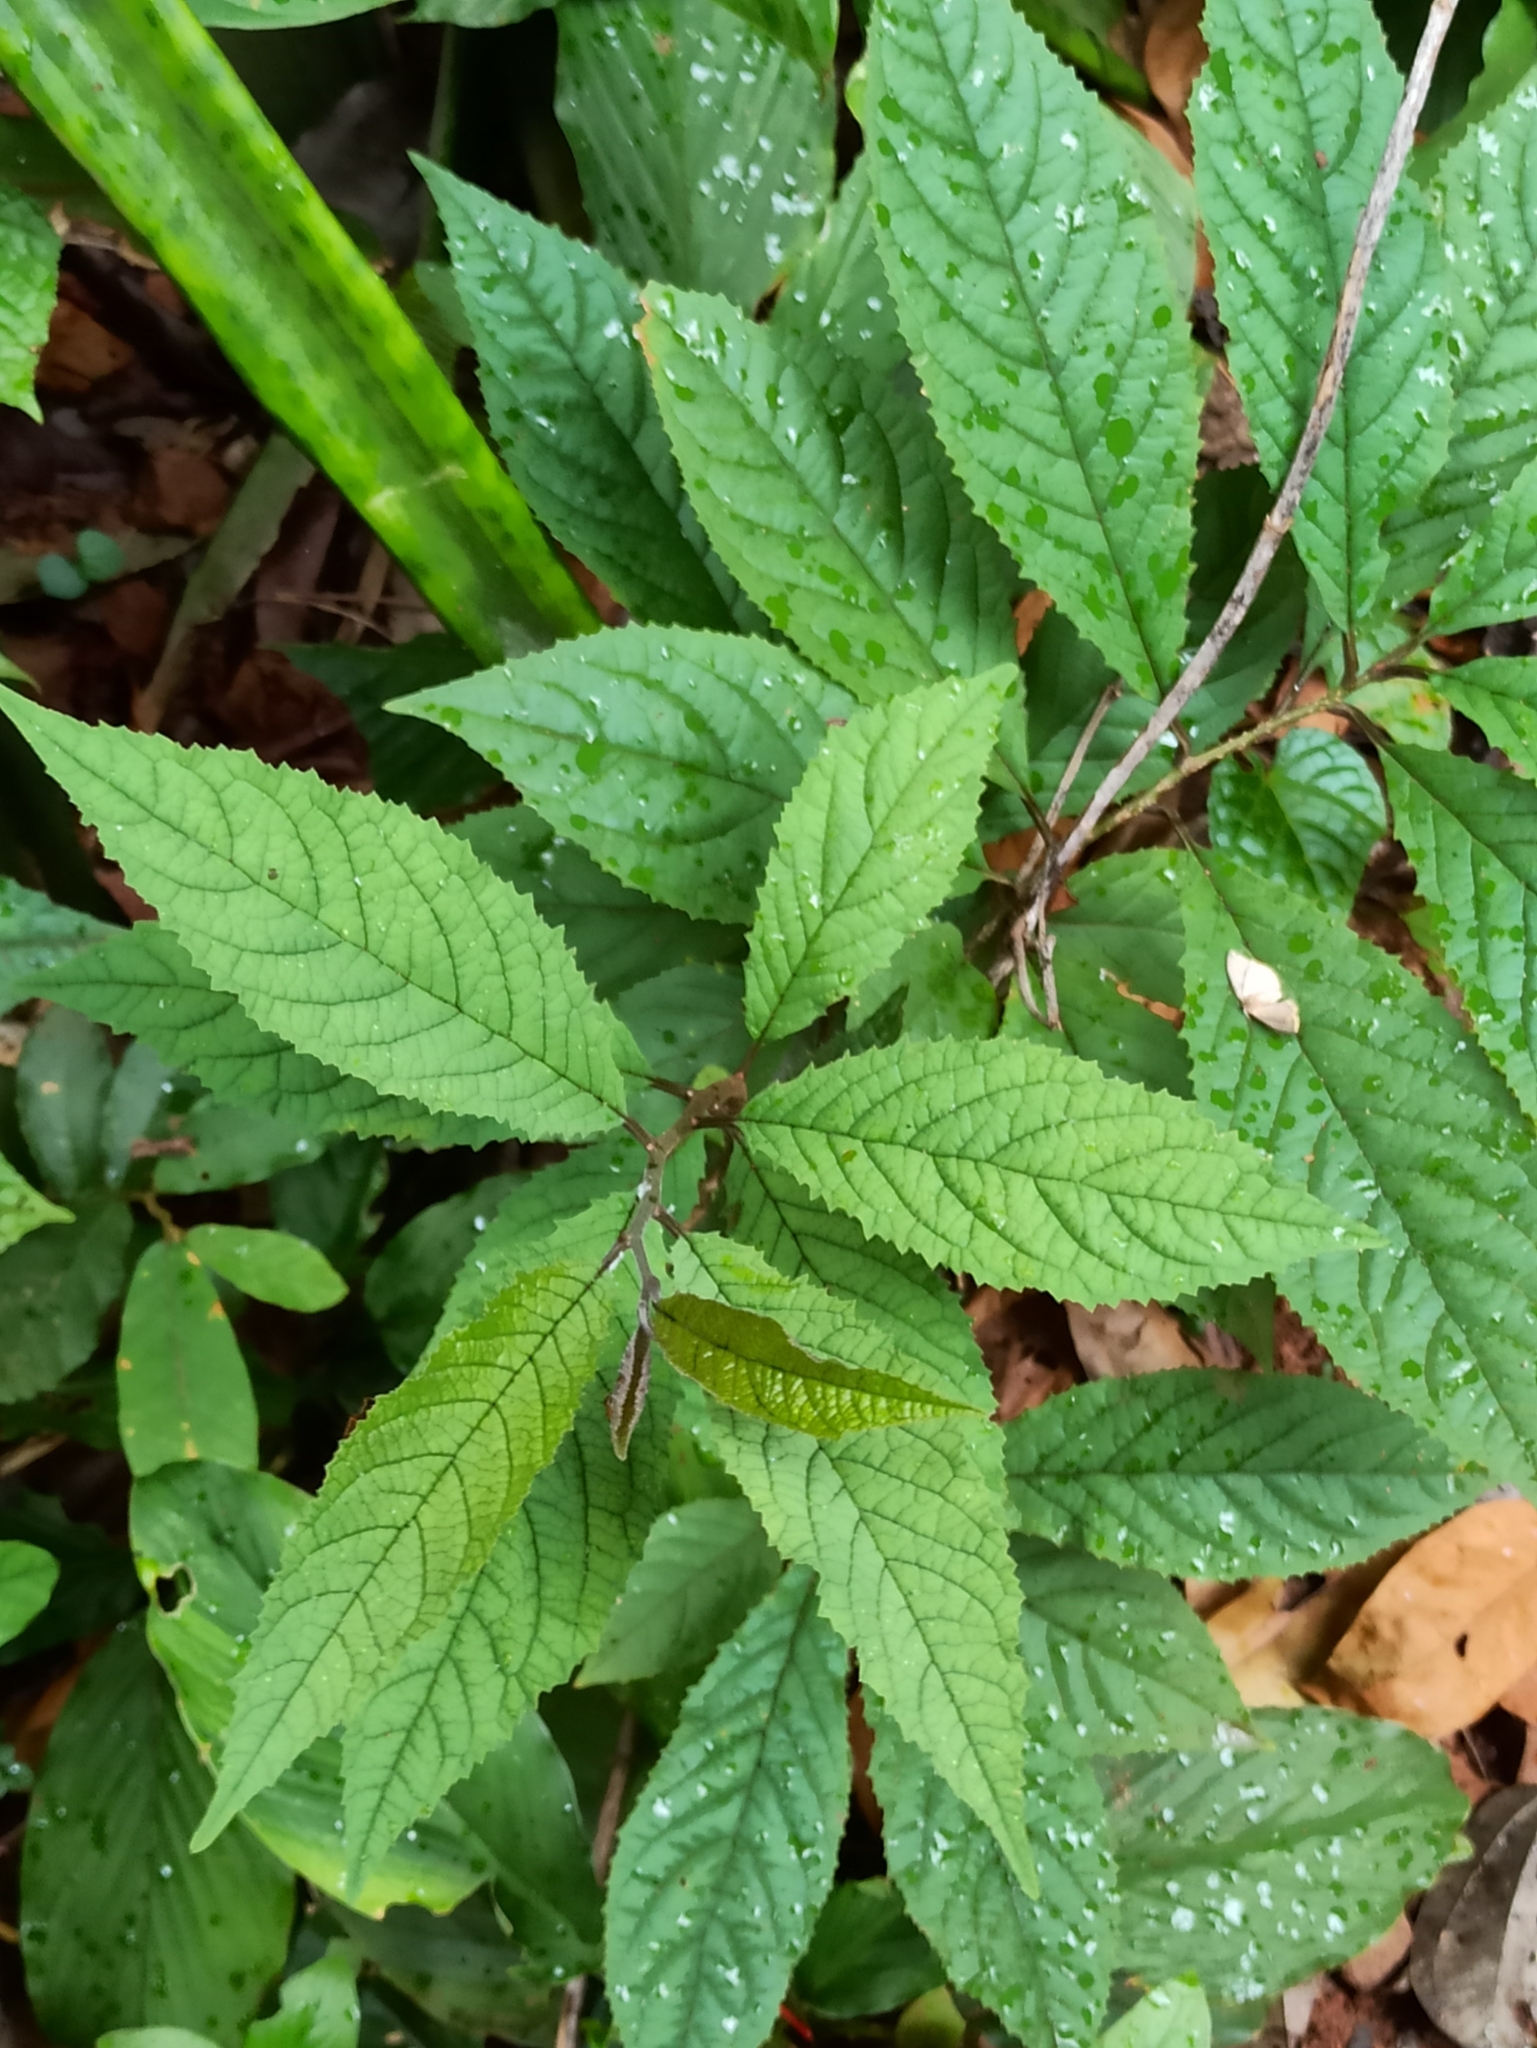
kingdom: Plantae
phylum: Tracheophyta
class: Magnoliopsida
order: Ericales
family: Primulaceae
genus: Embelia
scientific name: Embelia tsjeriam-cottam
